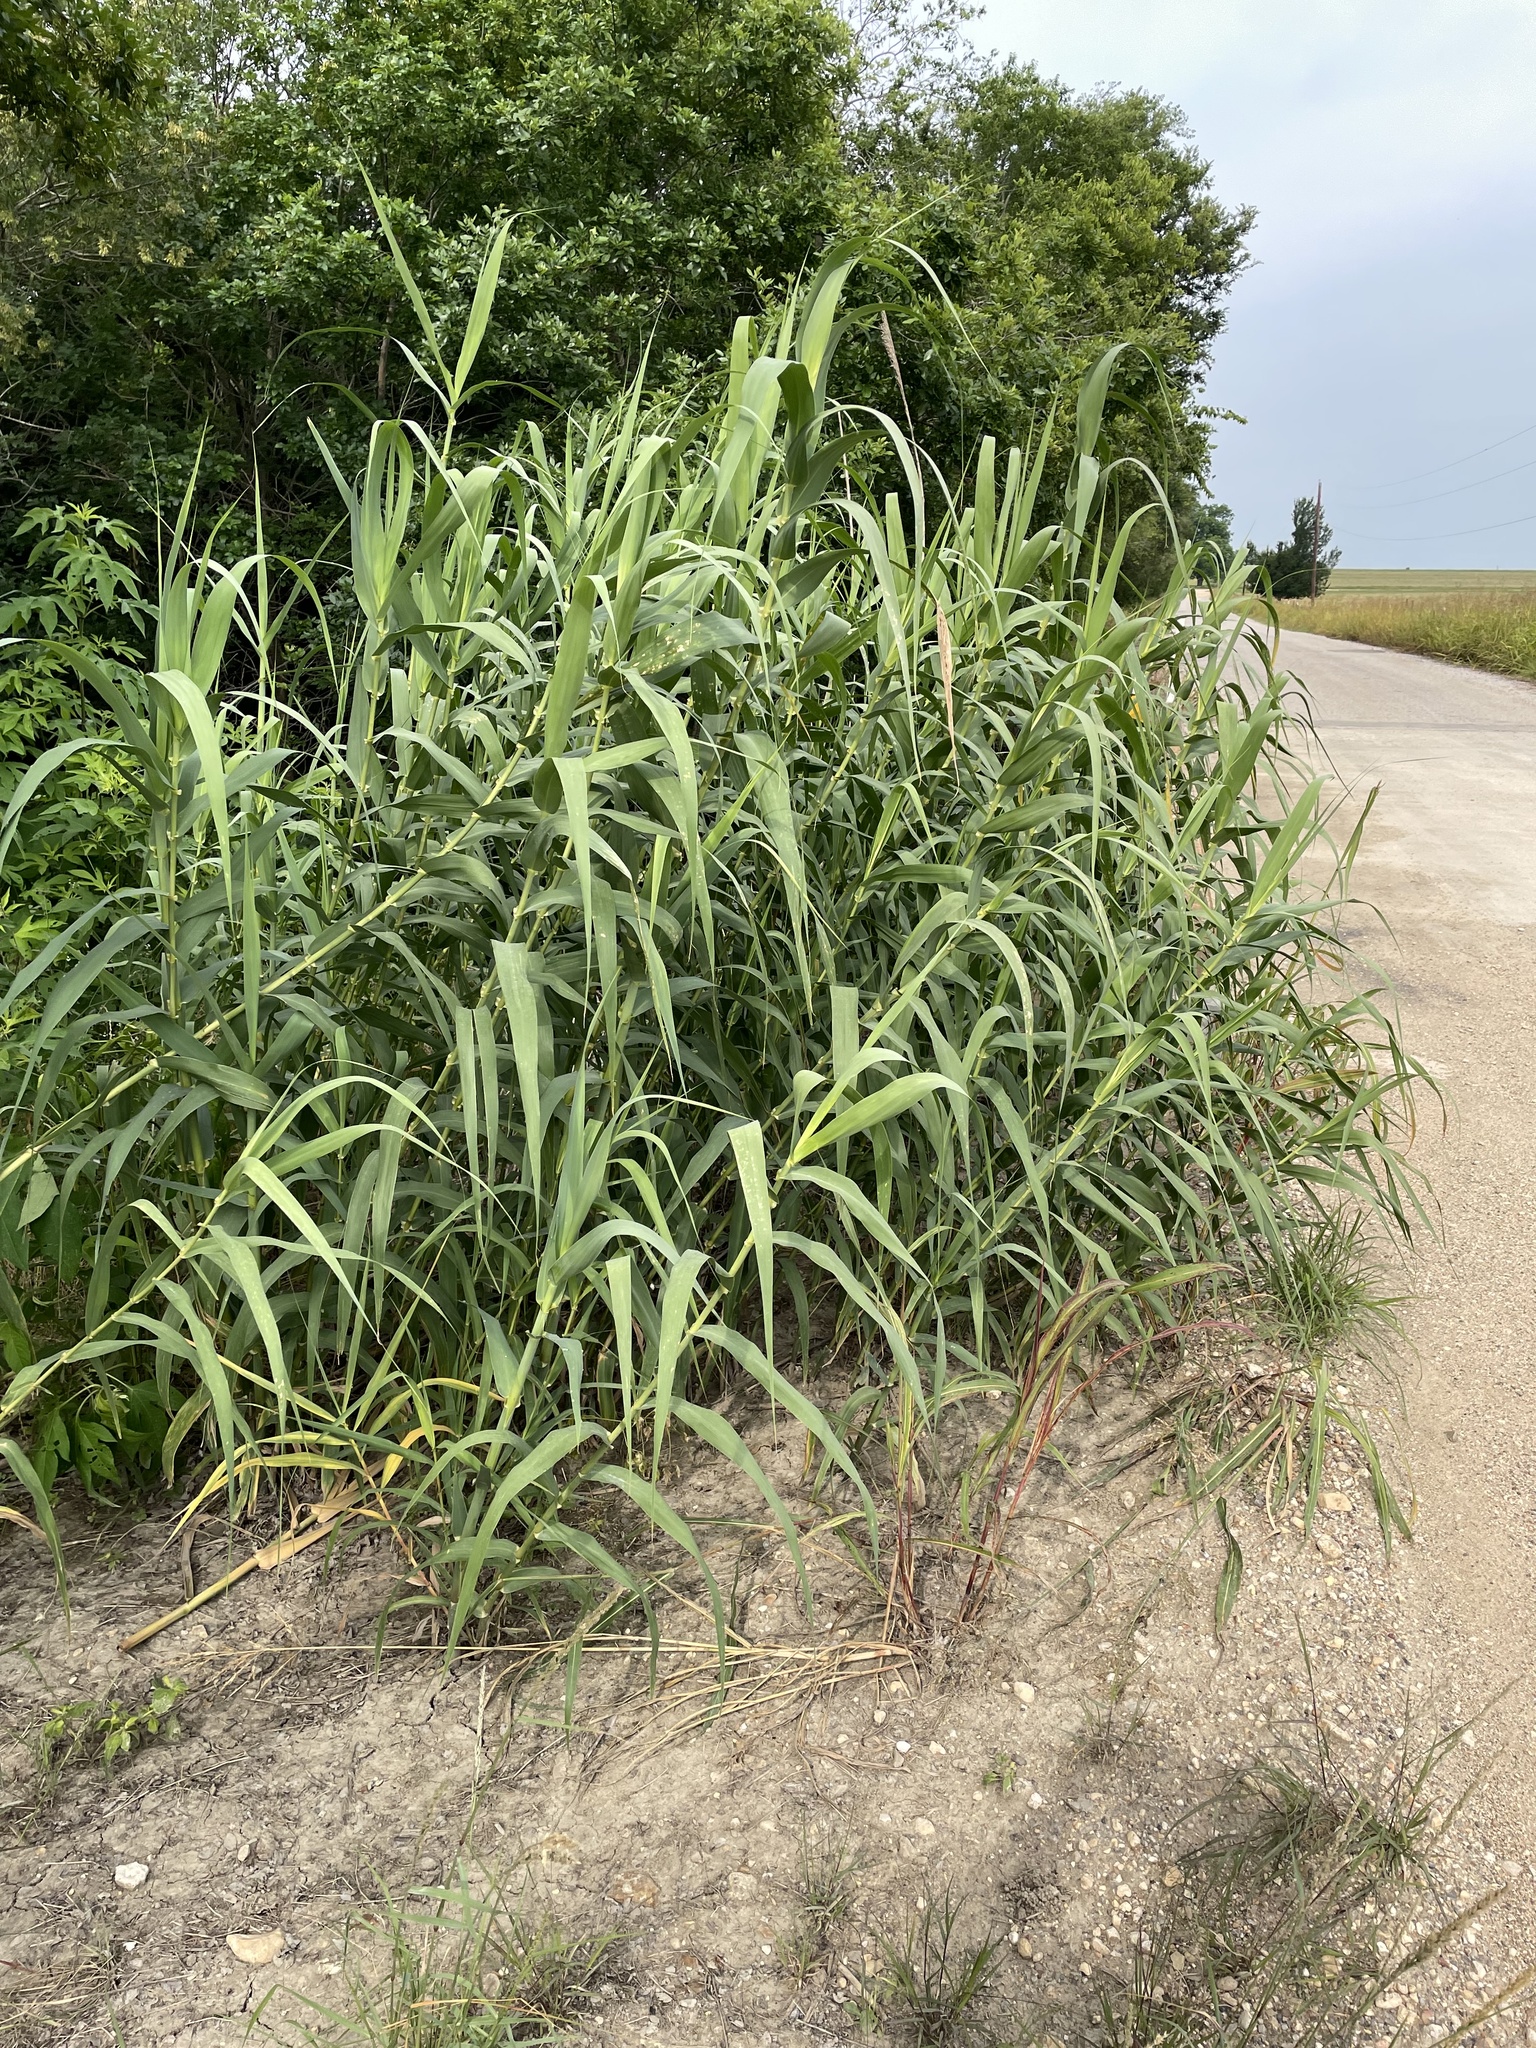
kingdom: Plantae
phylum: Tracheophyta
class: Liliopsida
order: Poales
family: Poaceae
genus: Arundo
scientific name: Arundo donax
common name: Giant reed
